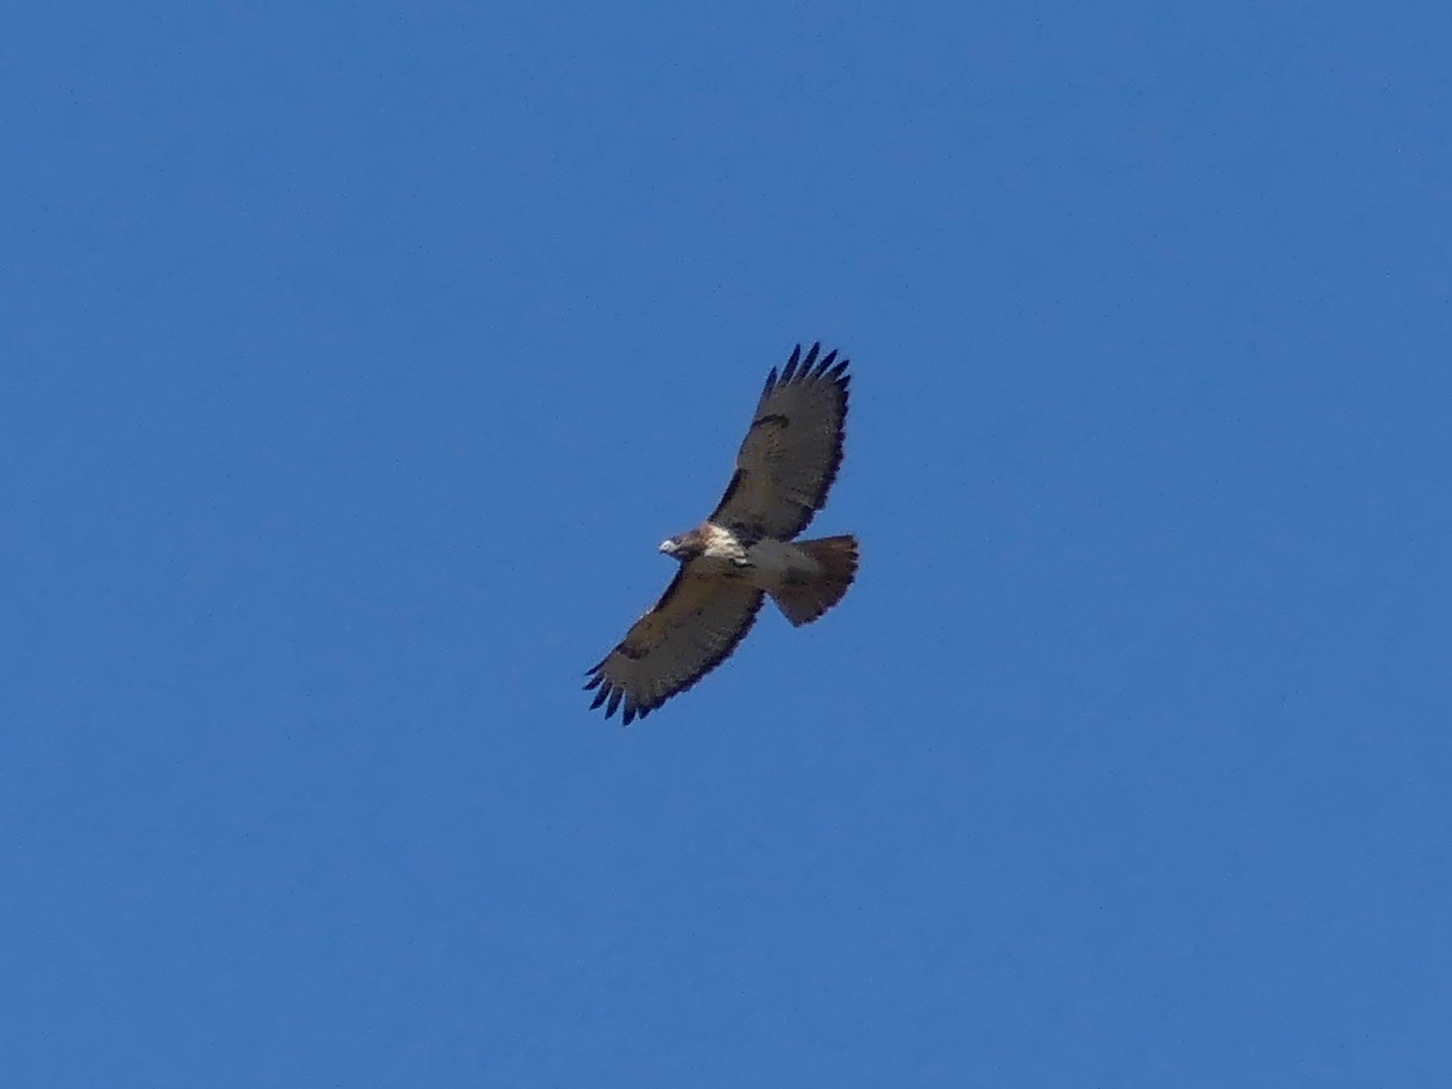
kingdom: Animalia
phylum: Chordata
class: Aves
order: Accipitriformes
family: Accipitridae
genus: Buteo
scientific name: Buteo jamaicensis
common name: Red-tailed hawk
